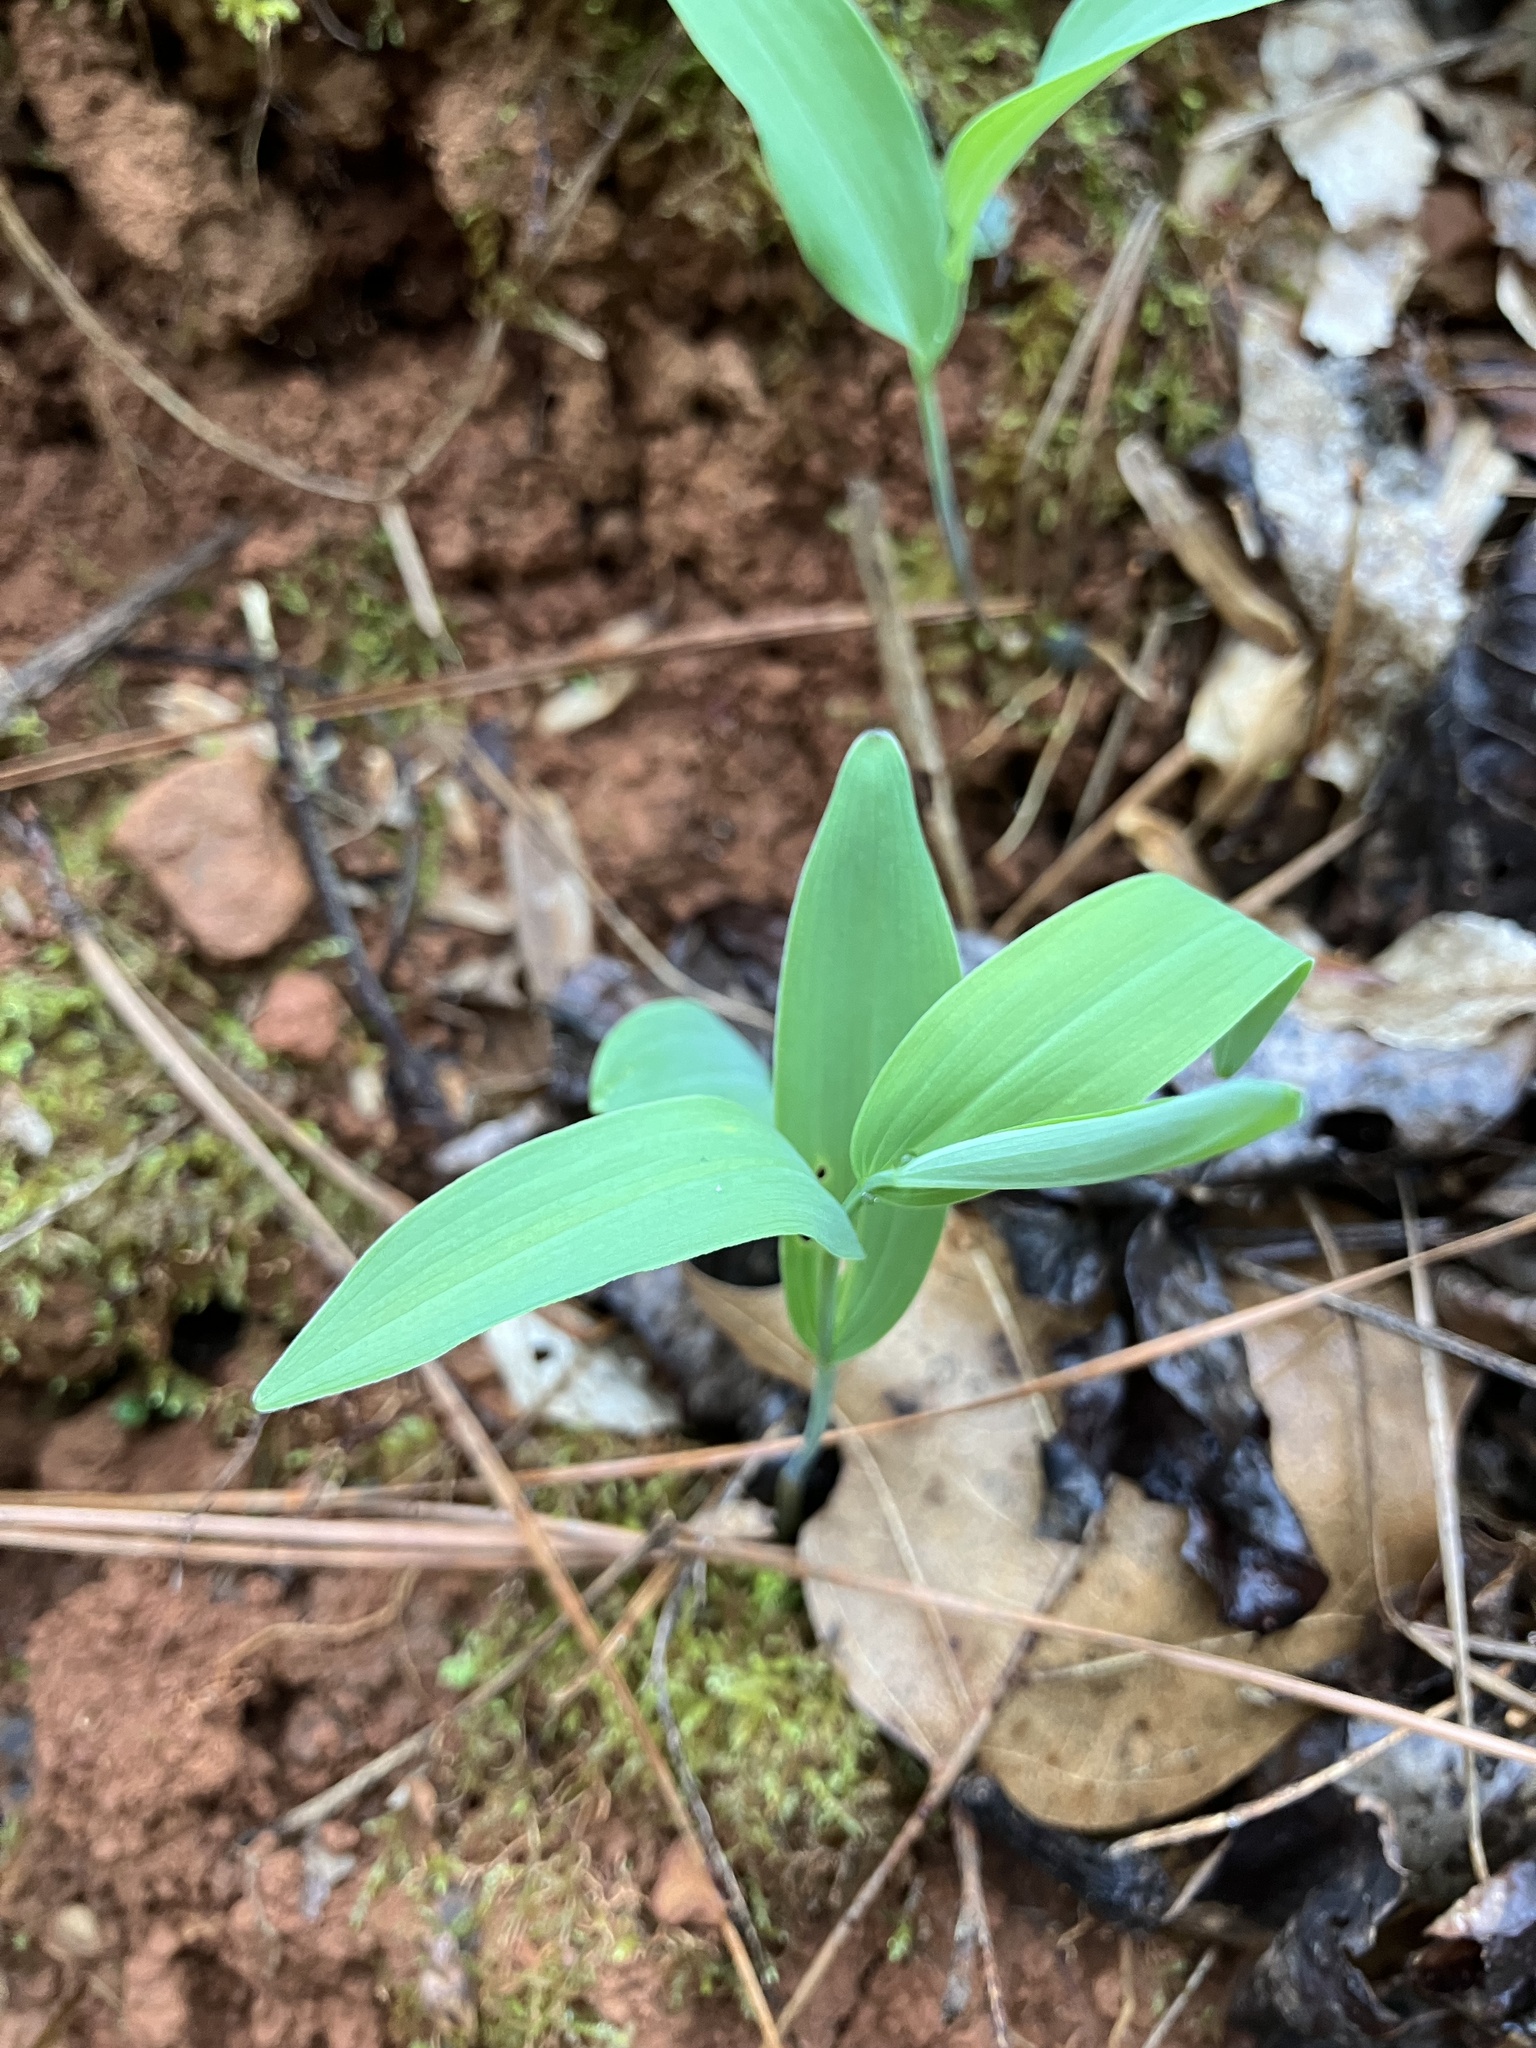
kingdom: Plantae
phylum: Tracheophyta
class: Liliopsida
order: Asparagales
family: Asparagaceae
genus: Polygonatum
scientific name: Polygonatum biflorum
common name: American solomon's-seal
